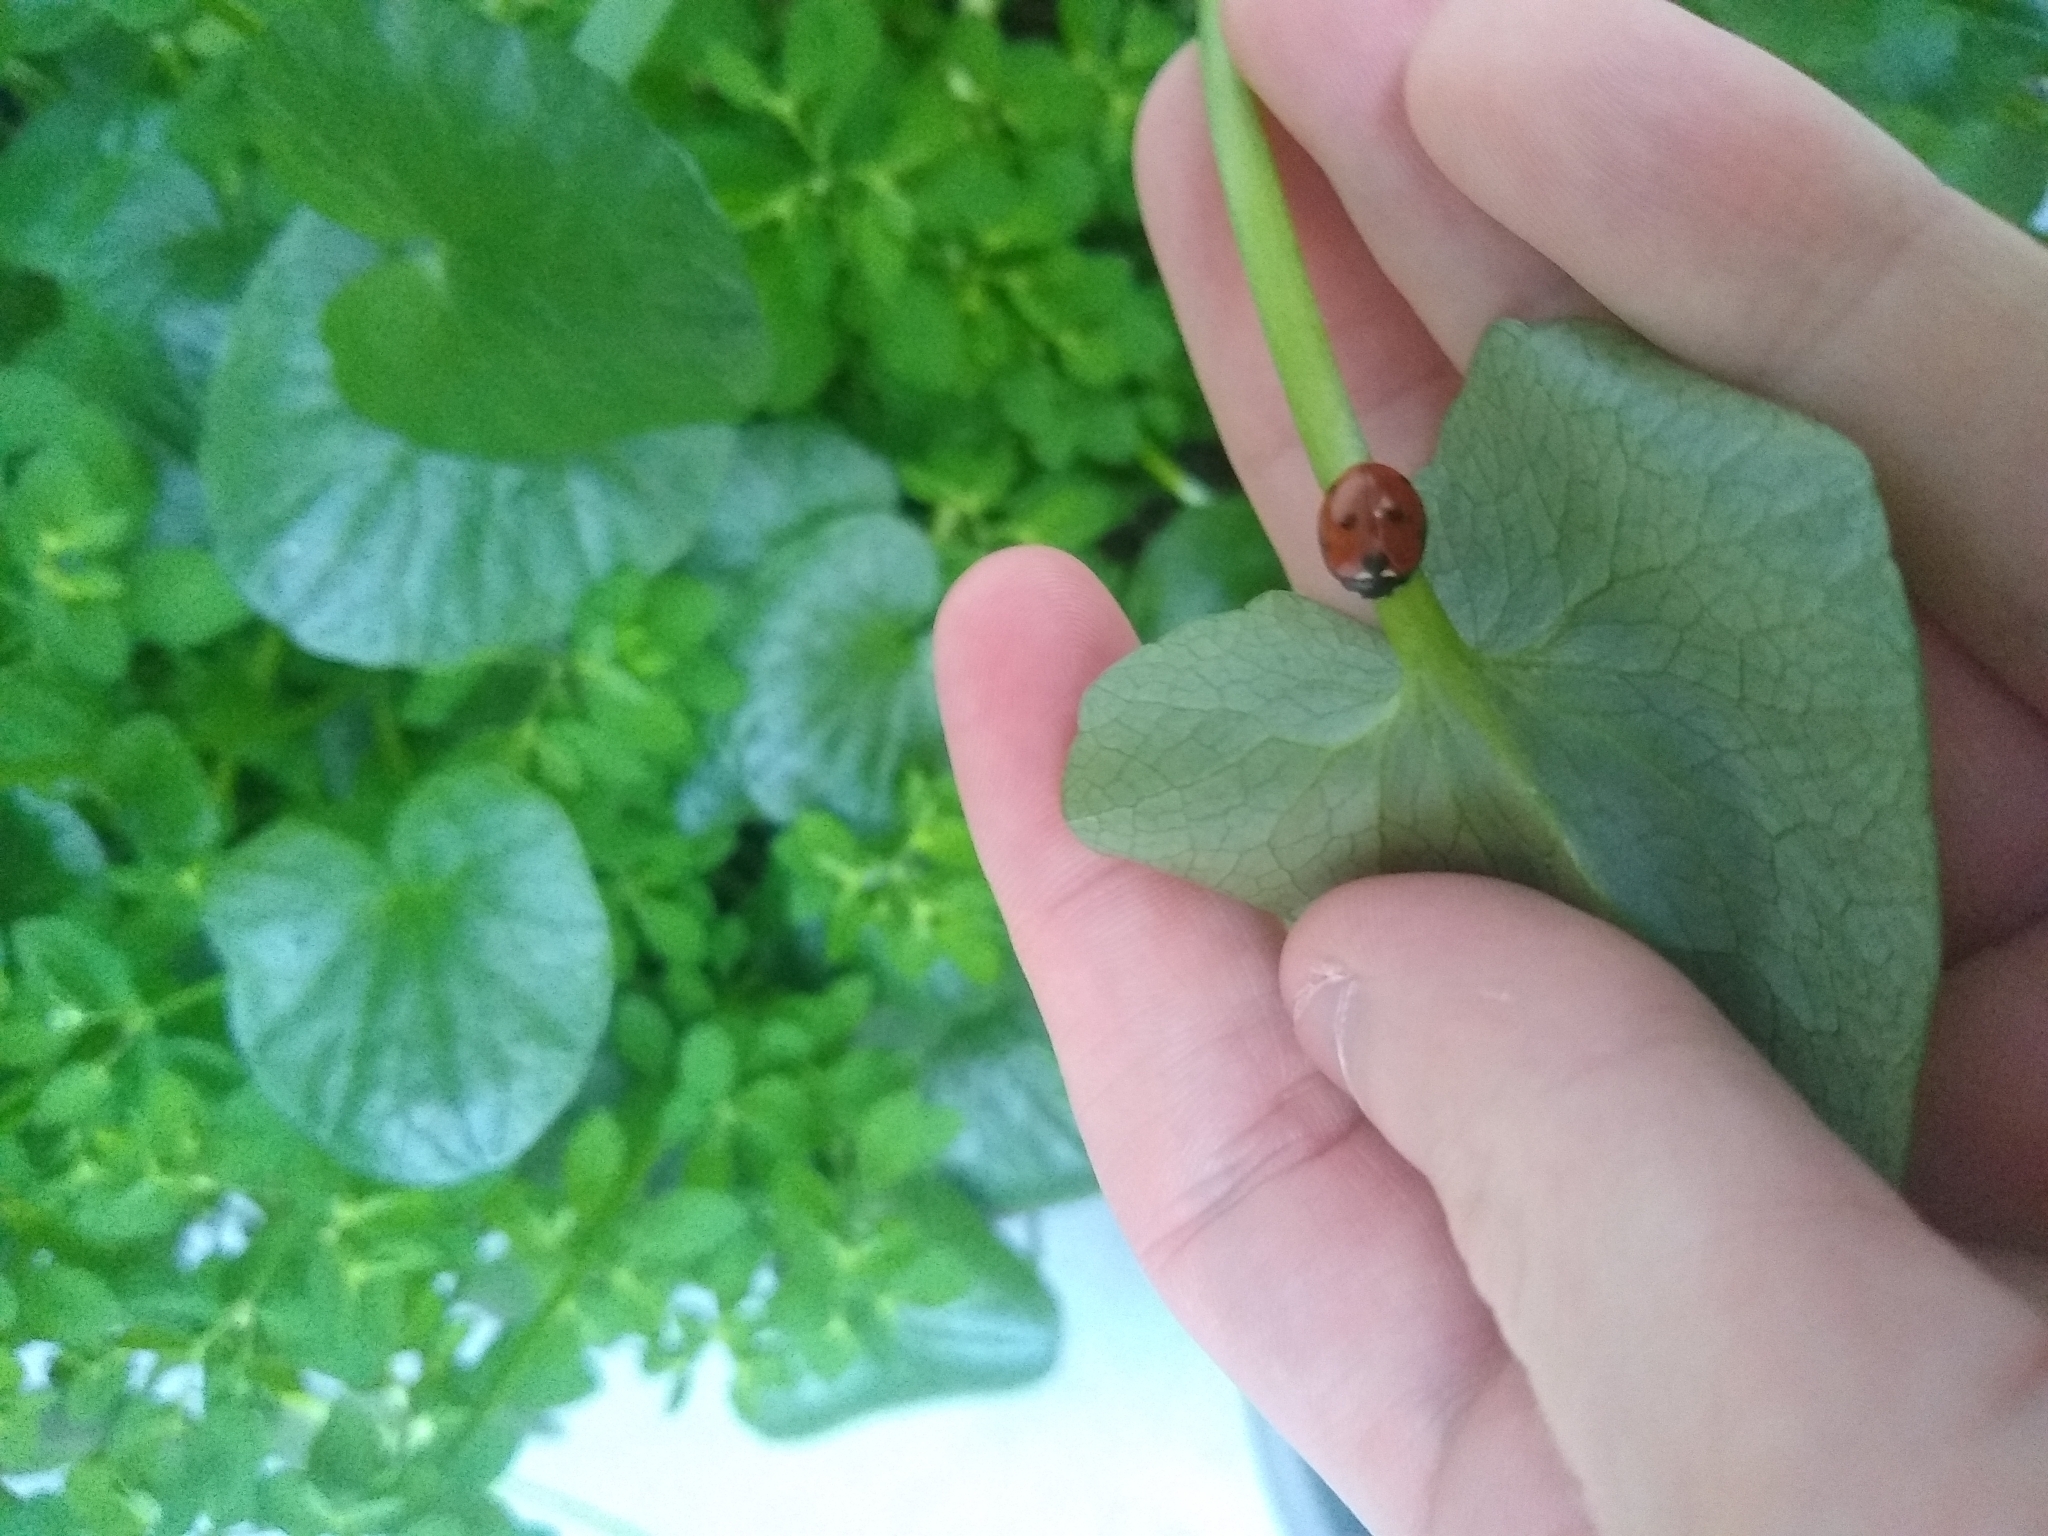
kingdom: Animalia
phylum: Arthropoda
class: Insecta
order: Coleoptera
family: Coccinellidae
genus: Coccinella
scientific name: Coccinella septempunctata
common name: Sevenspotted lady beetle
